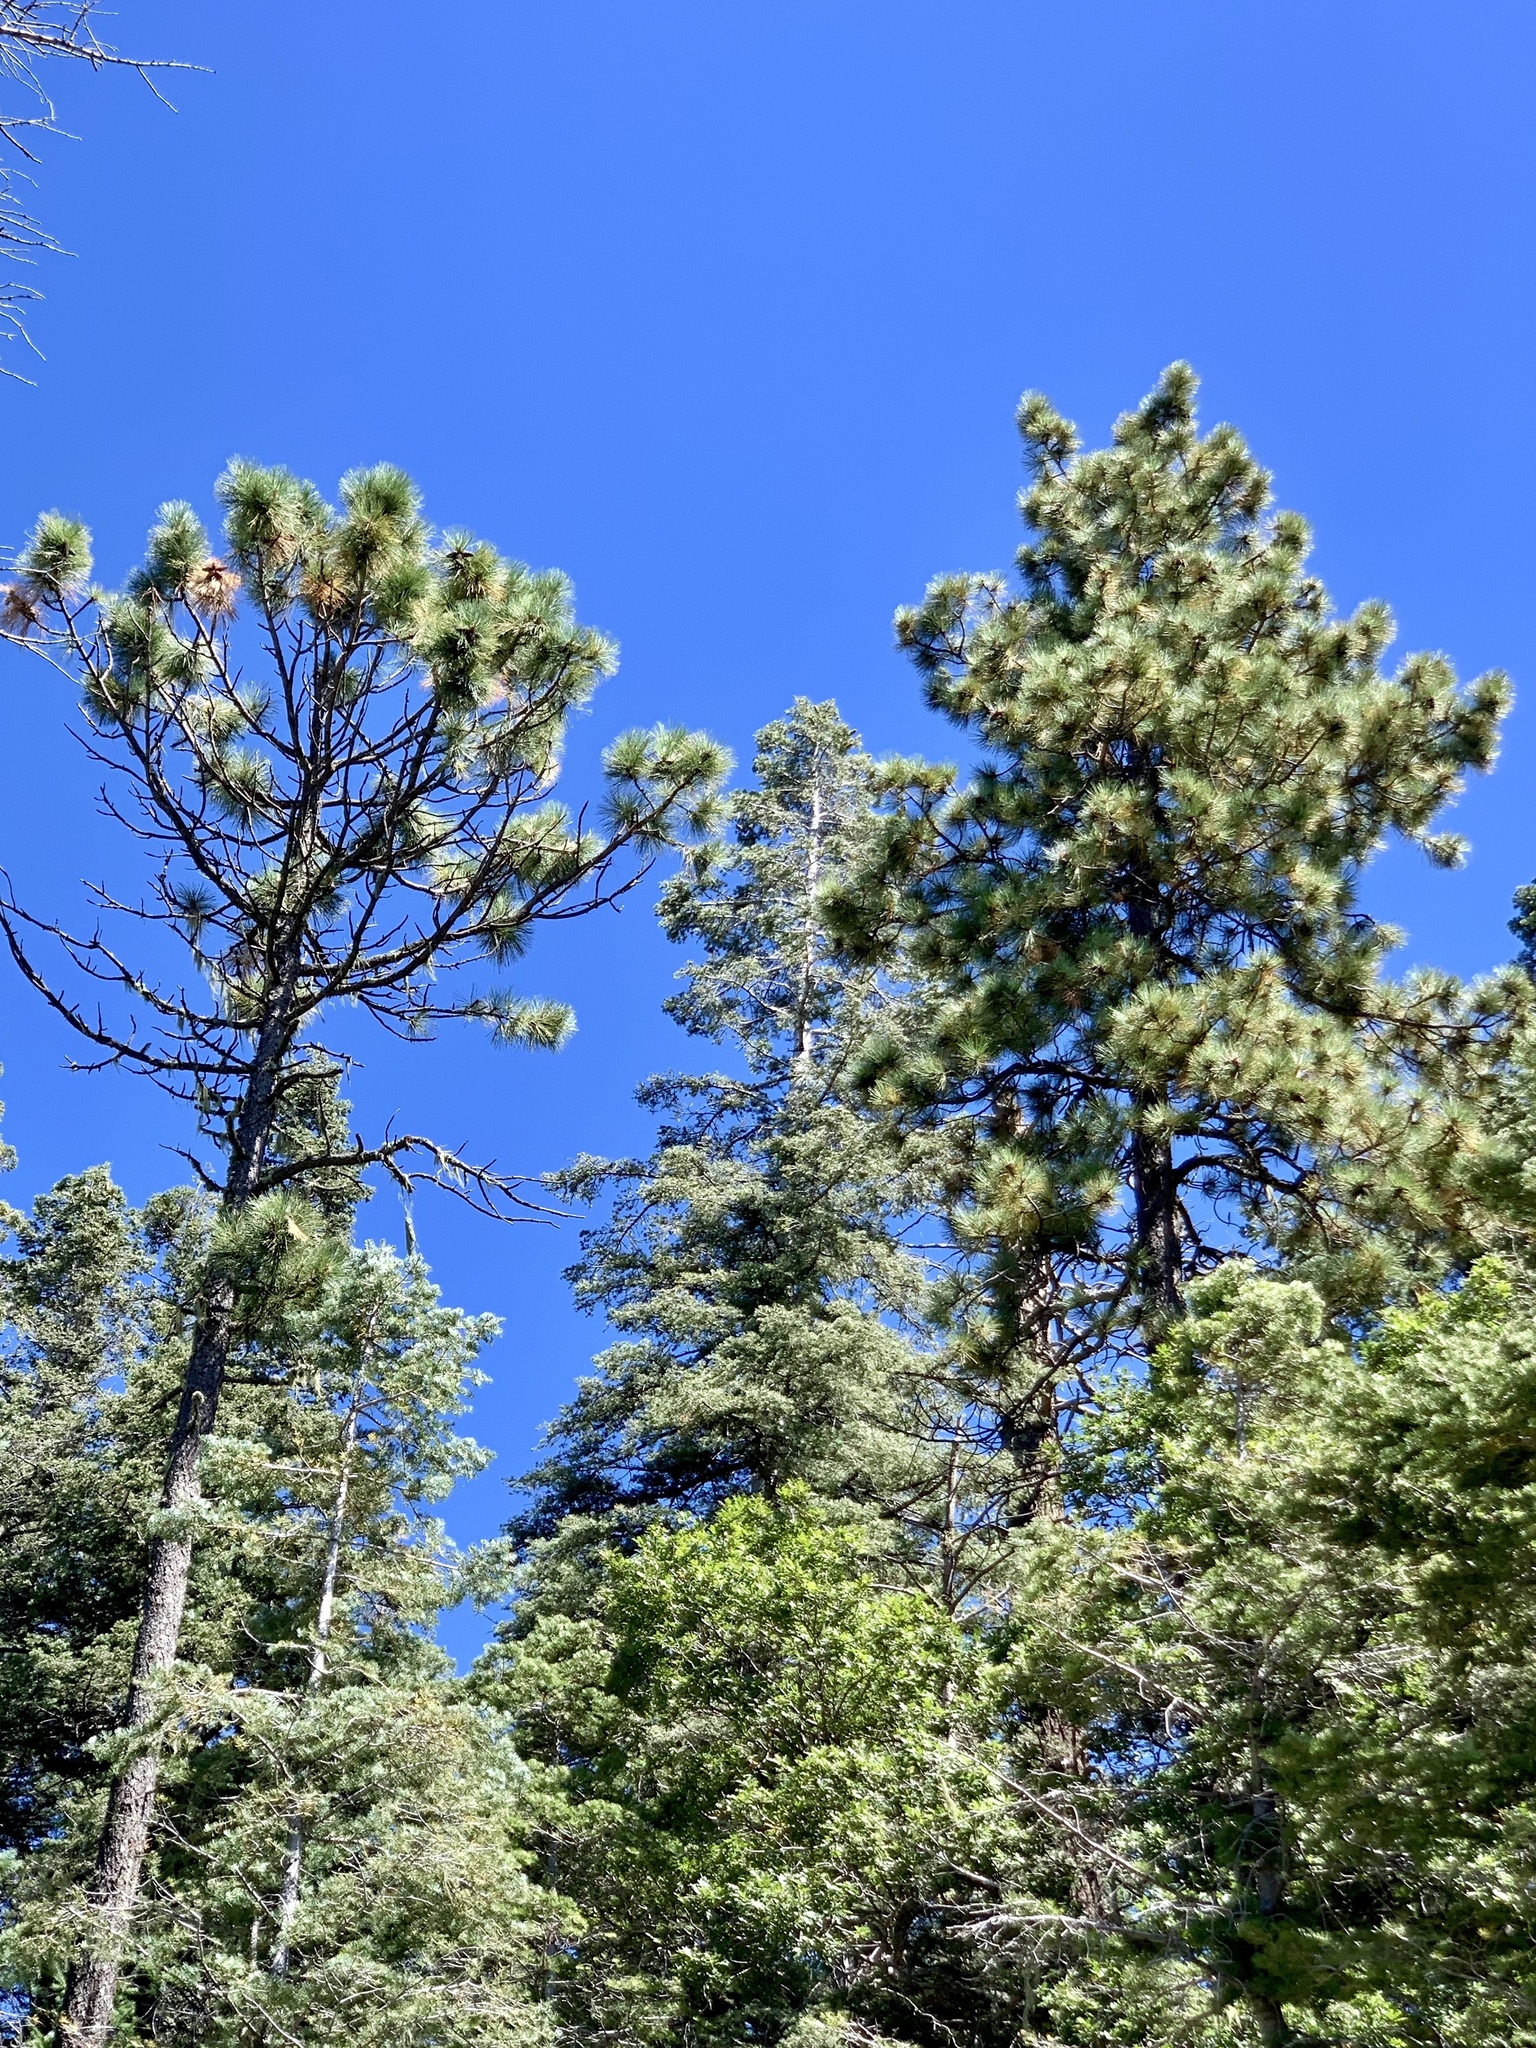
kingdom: Plantae
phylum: Tracheophyta
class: Pinopsida
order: Pinales
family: Pinaceae
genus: Pinus
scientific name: Pinus ponderosa
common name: Western yellow-pine
